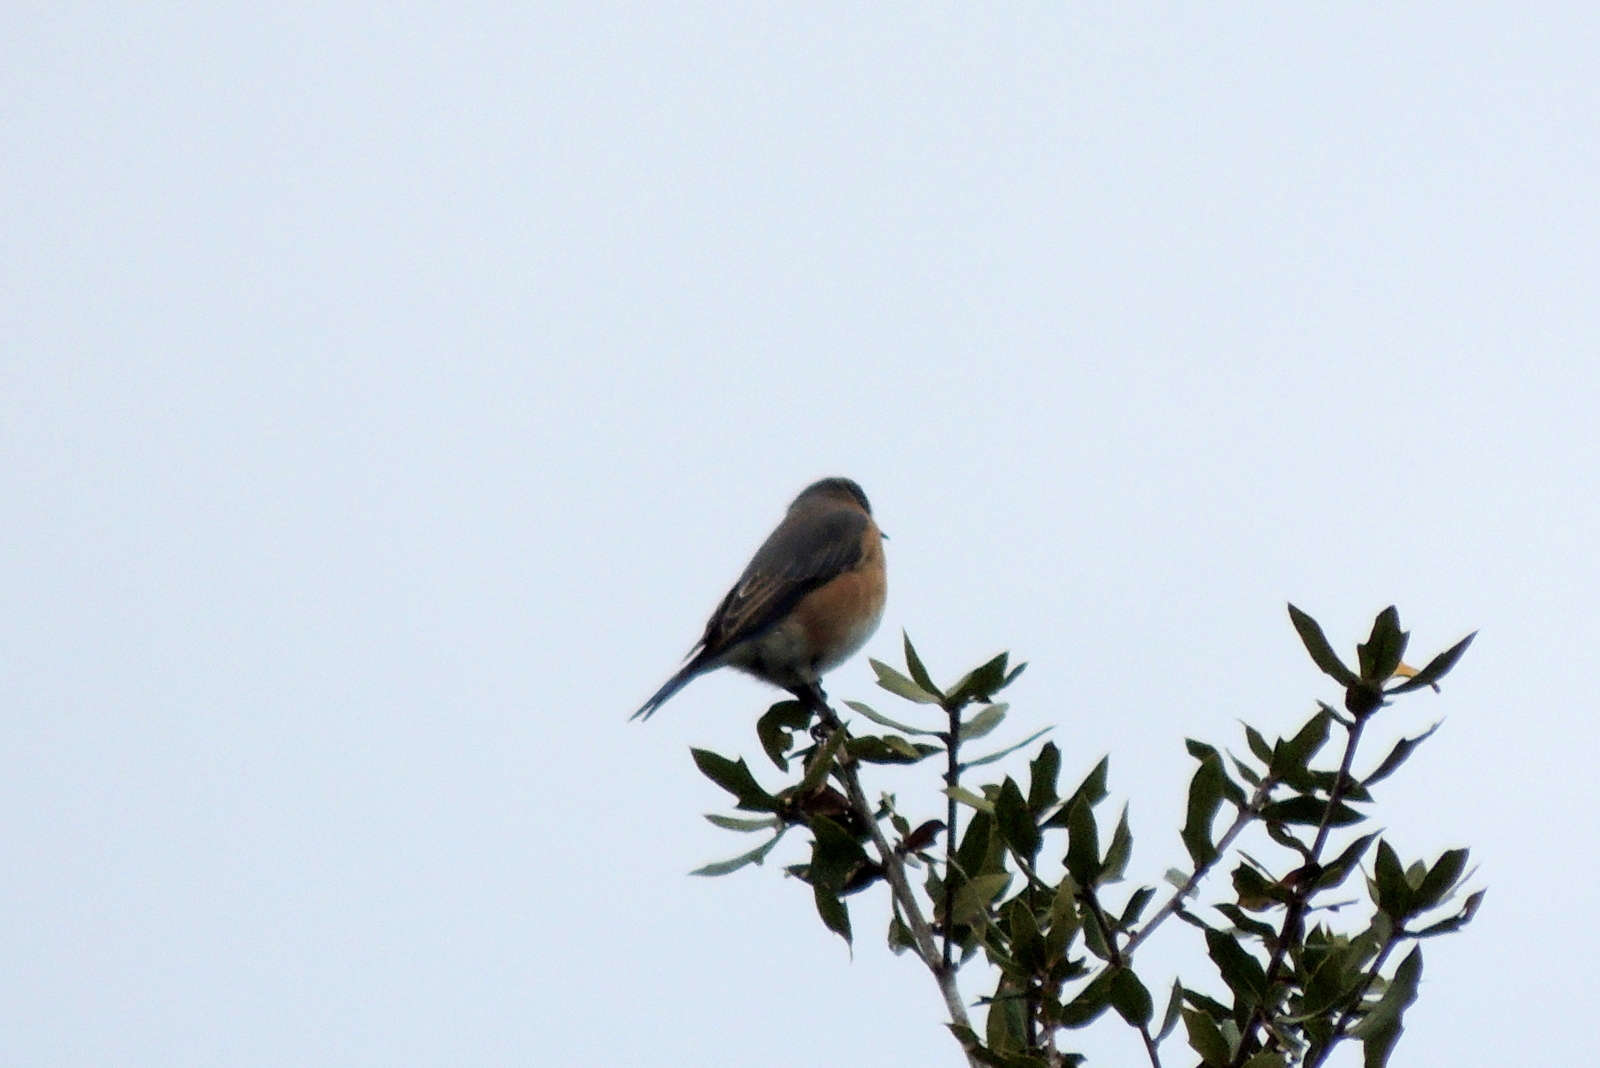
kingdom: Animalia
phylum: Chordata
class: Aves
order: Passeriformes
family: Turdidae
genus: Sialia
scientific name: Sialia sialis
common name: Eastern bluebird
